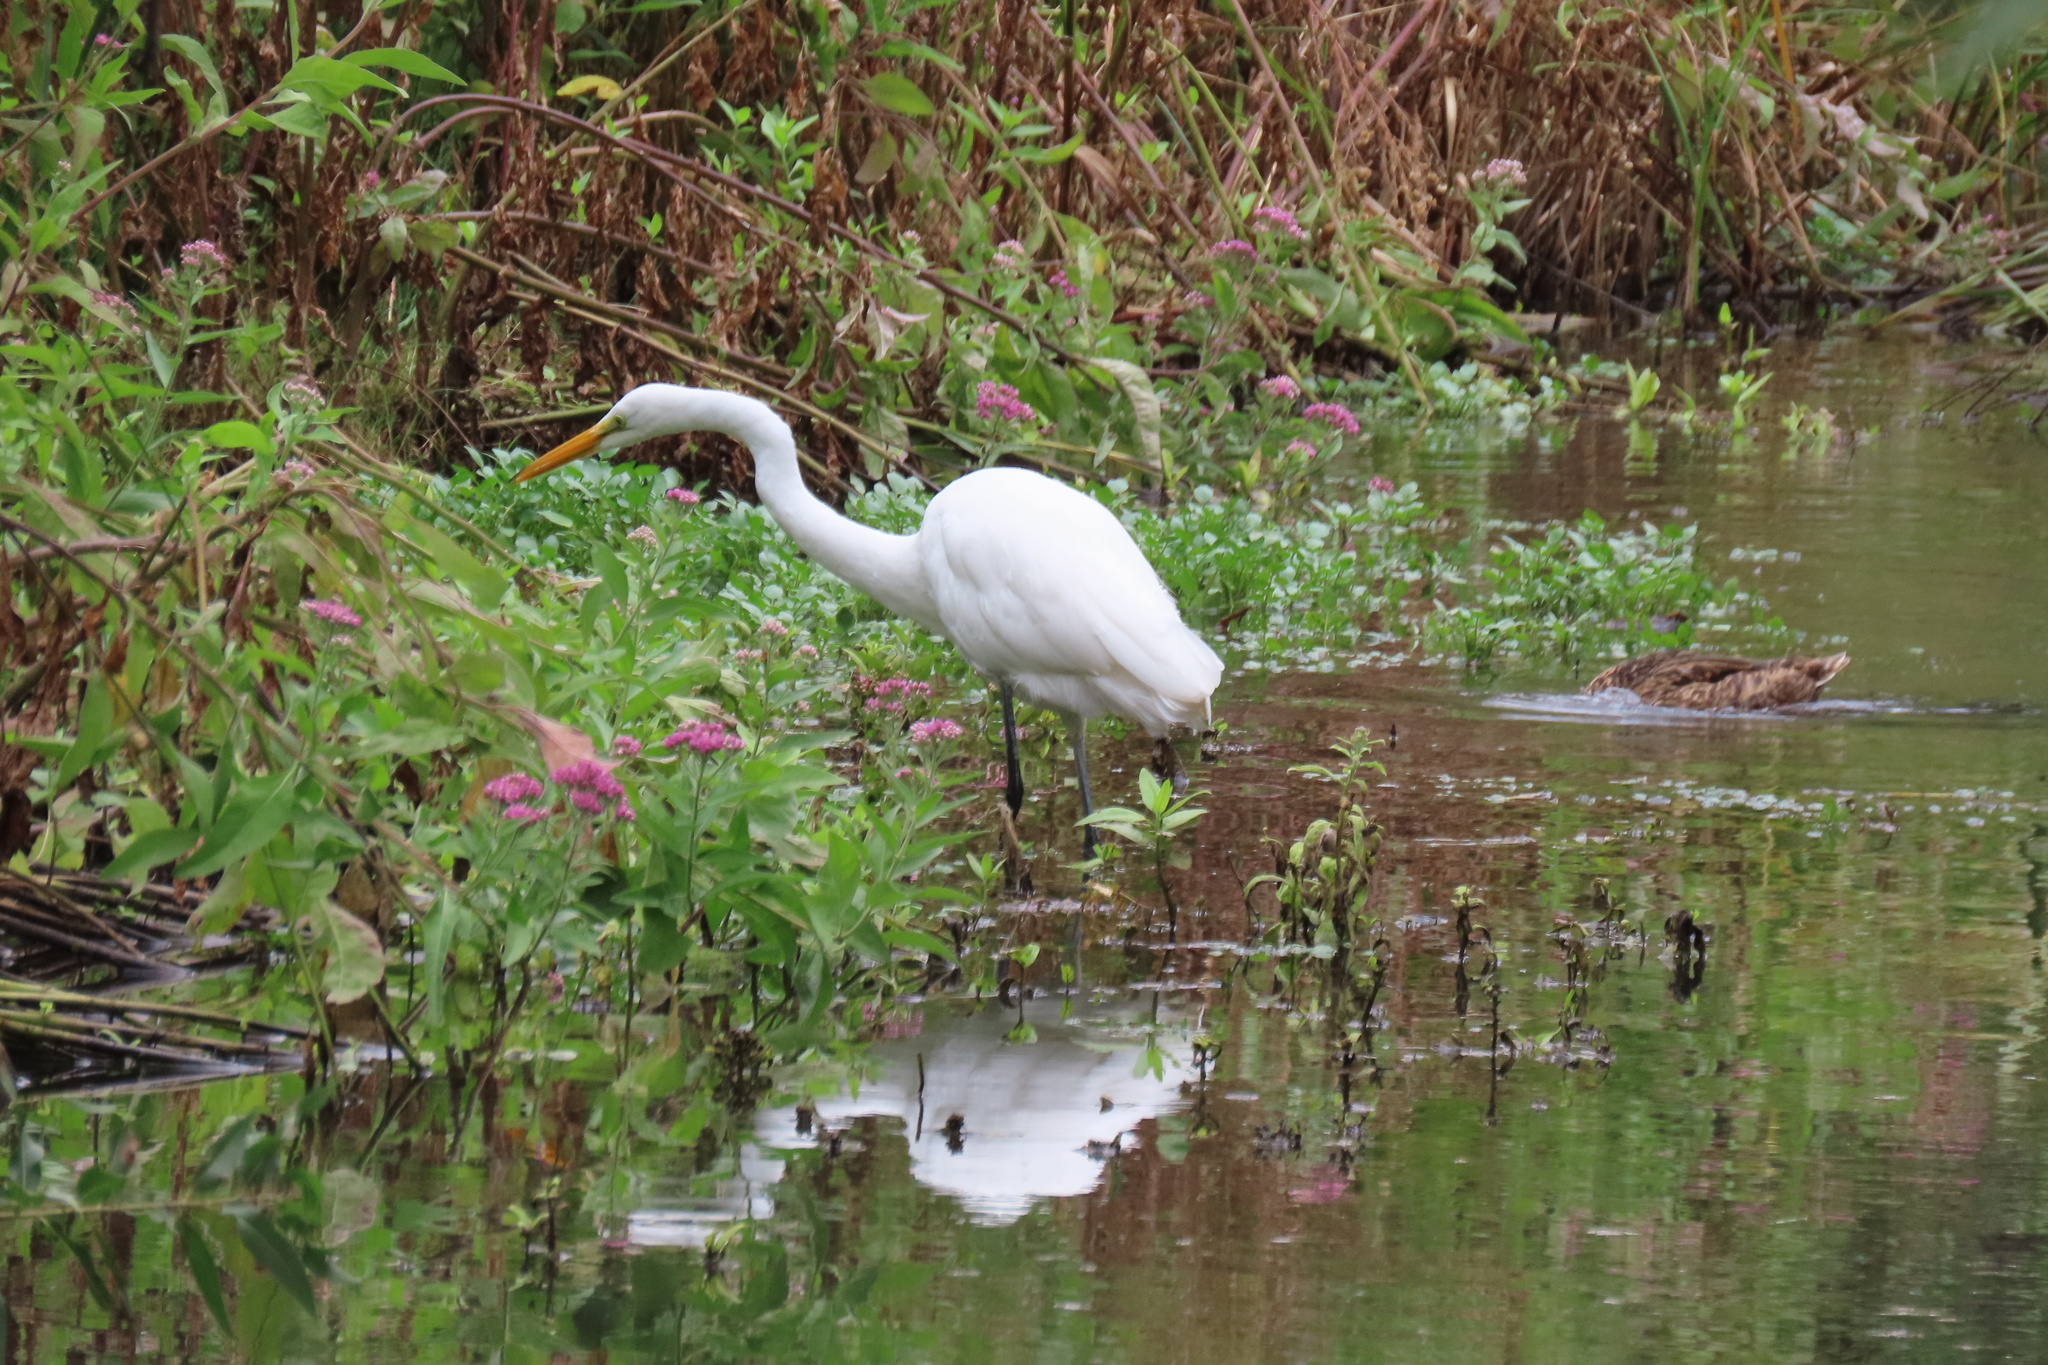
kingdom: Animalia
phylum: Chordata
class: Aves
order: Pelecaniformes
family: Ardeidae
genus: Ardea
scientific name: Ardea alba
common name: Great egret
